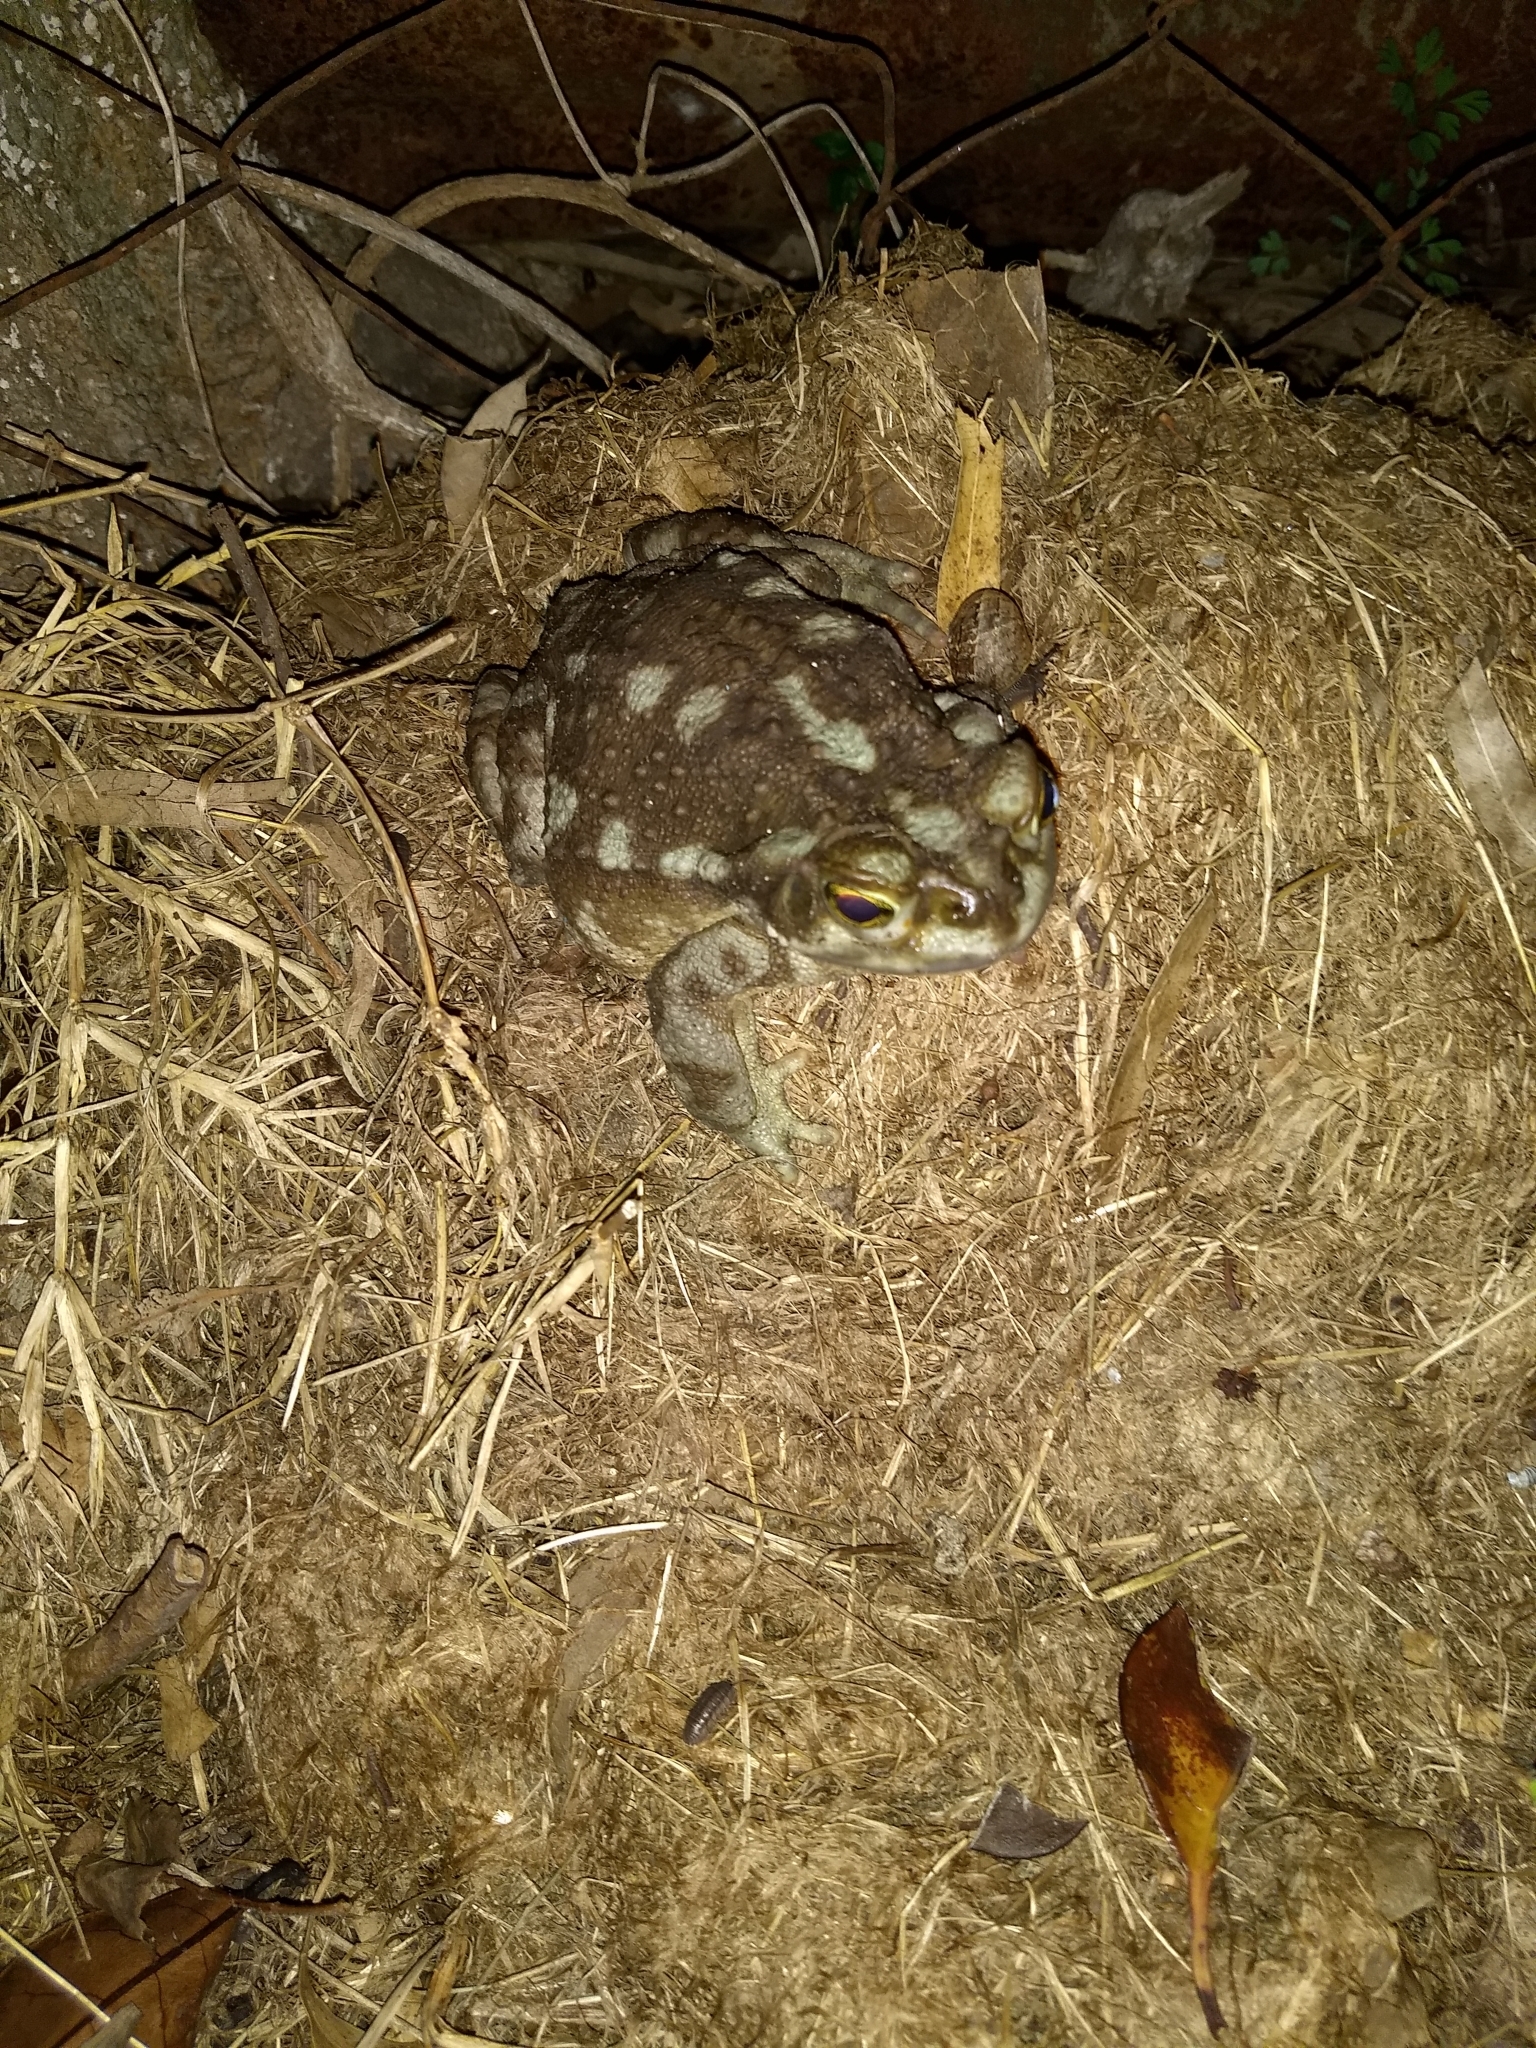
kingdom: Animalia
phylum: Chordata
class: Amphibia
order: Anura
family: Bufonidae
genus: Rhinella
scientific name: Rhinella arenarum
